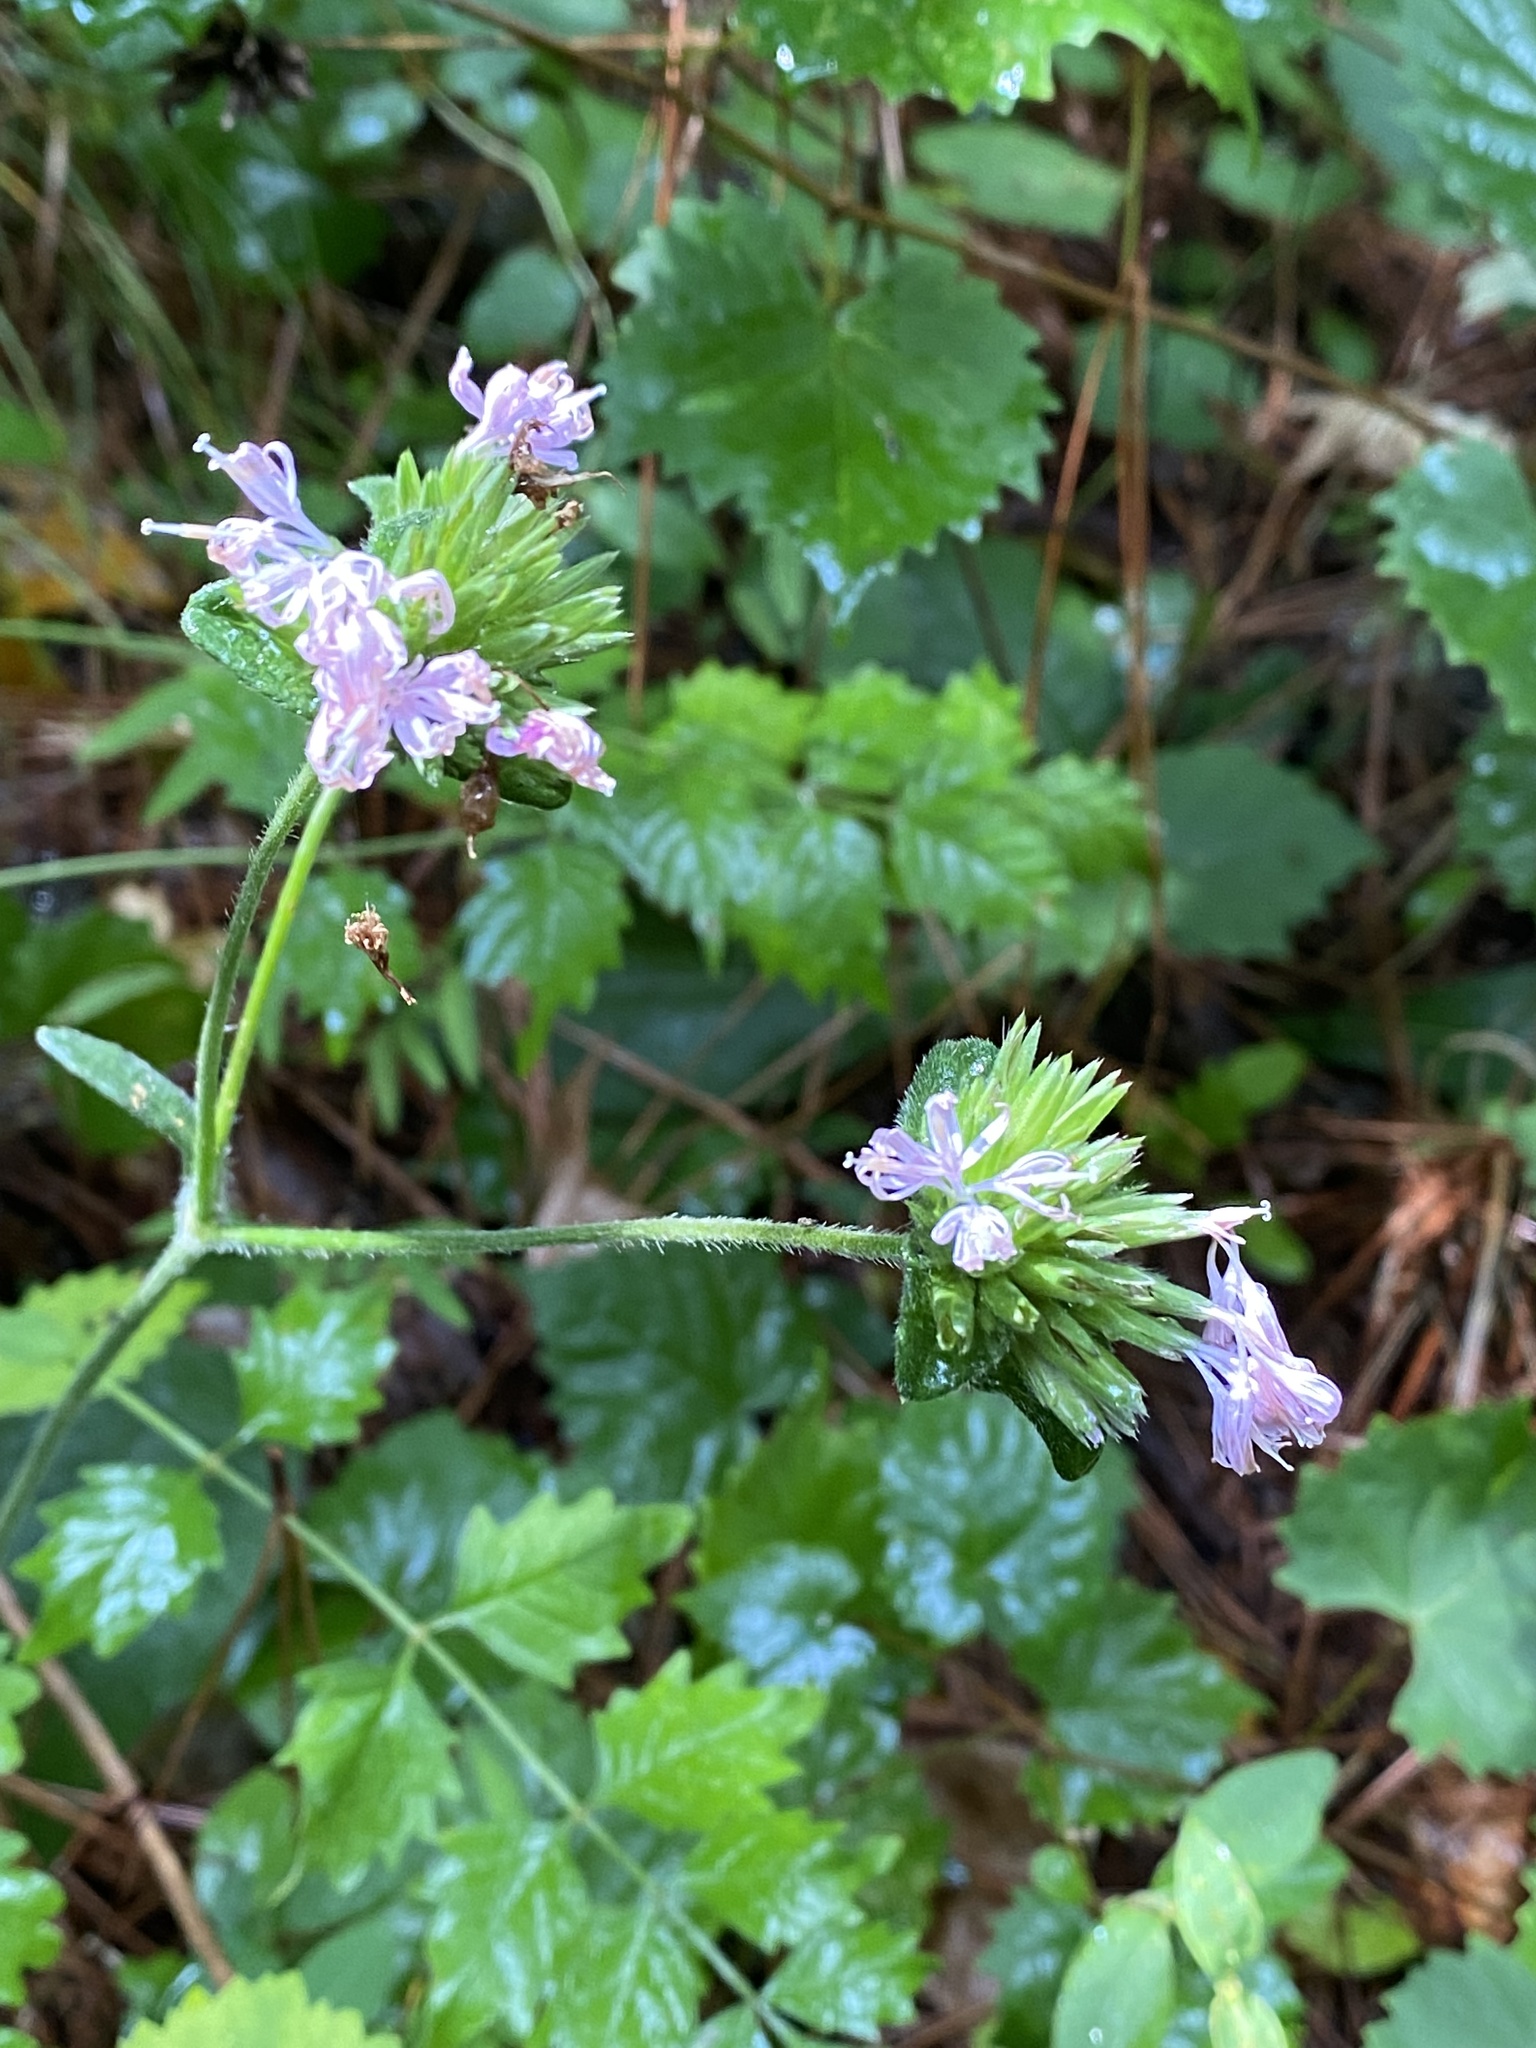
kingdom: Plantae
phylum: Tracheophyta
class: Magnoliopsida
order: Asterales
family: Asteraceae
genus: Elephantopus
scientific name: Elephantopus tomentosus
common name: Tobacco-weed
